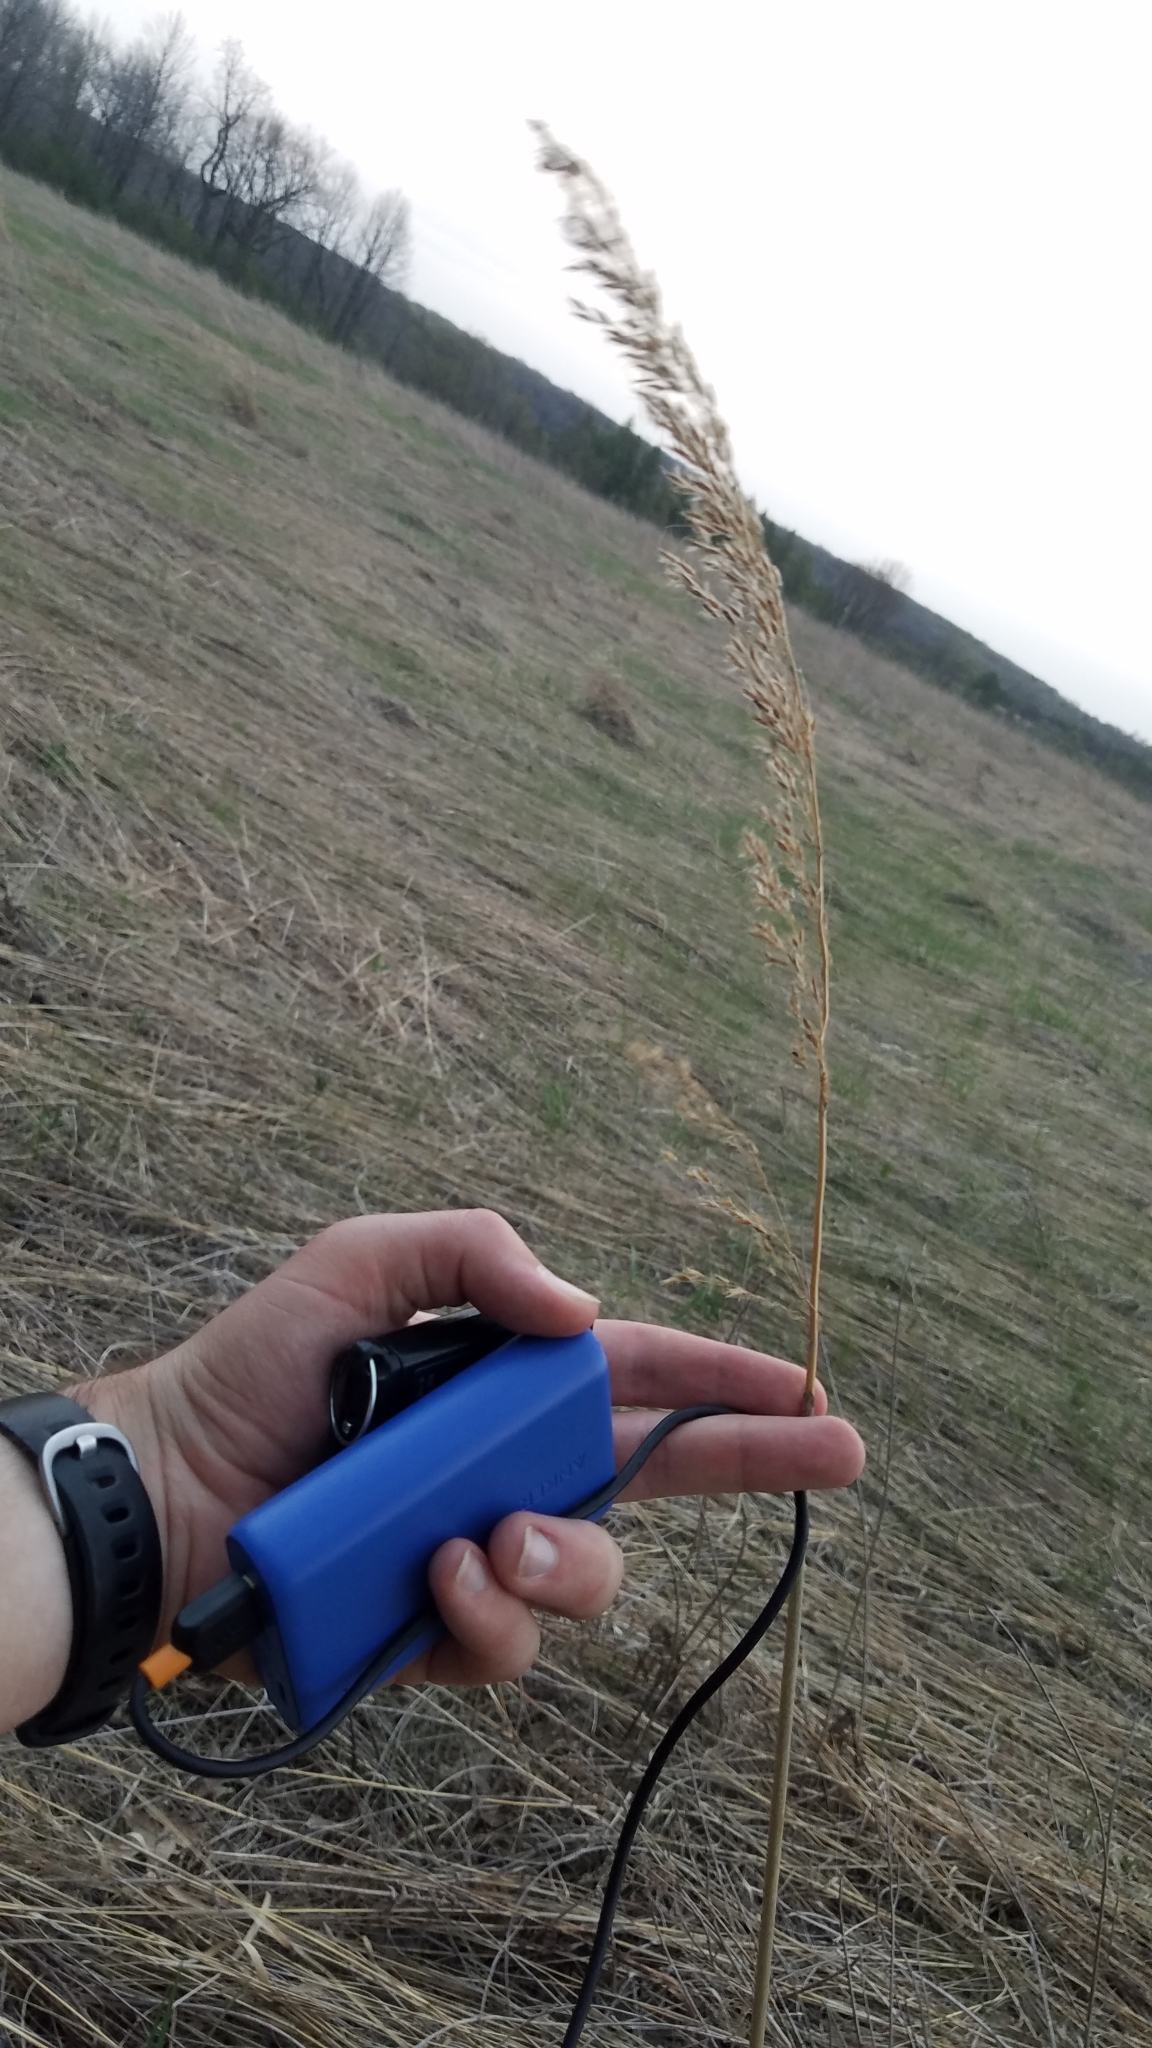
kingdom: Plantae
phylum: Tracheophyta
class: Liliopsida
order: Poales
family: Poaceae
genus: Sorghastrum
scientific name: Sorghastrum nutans
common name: Indian grass
